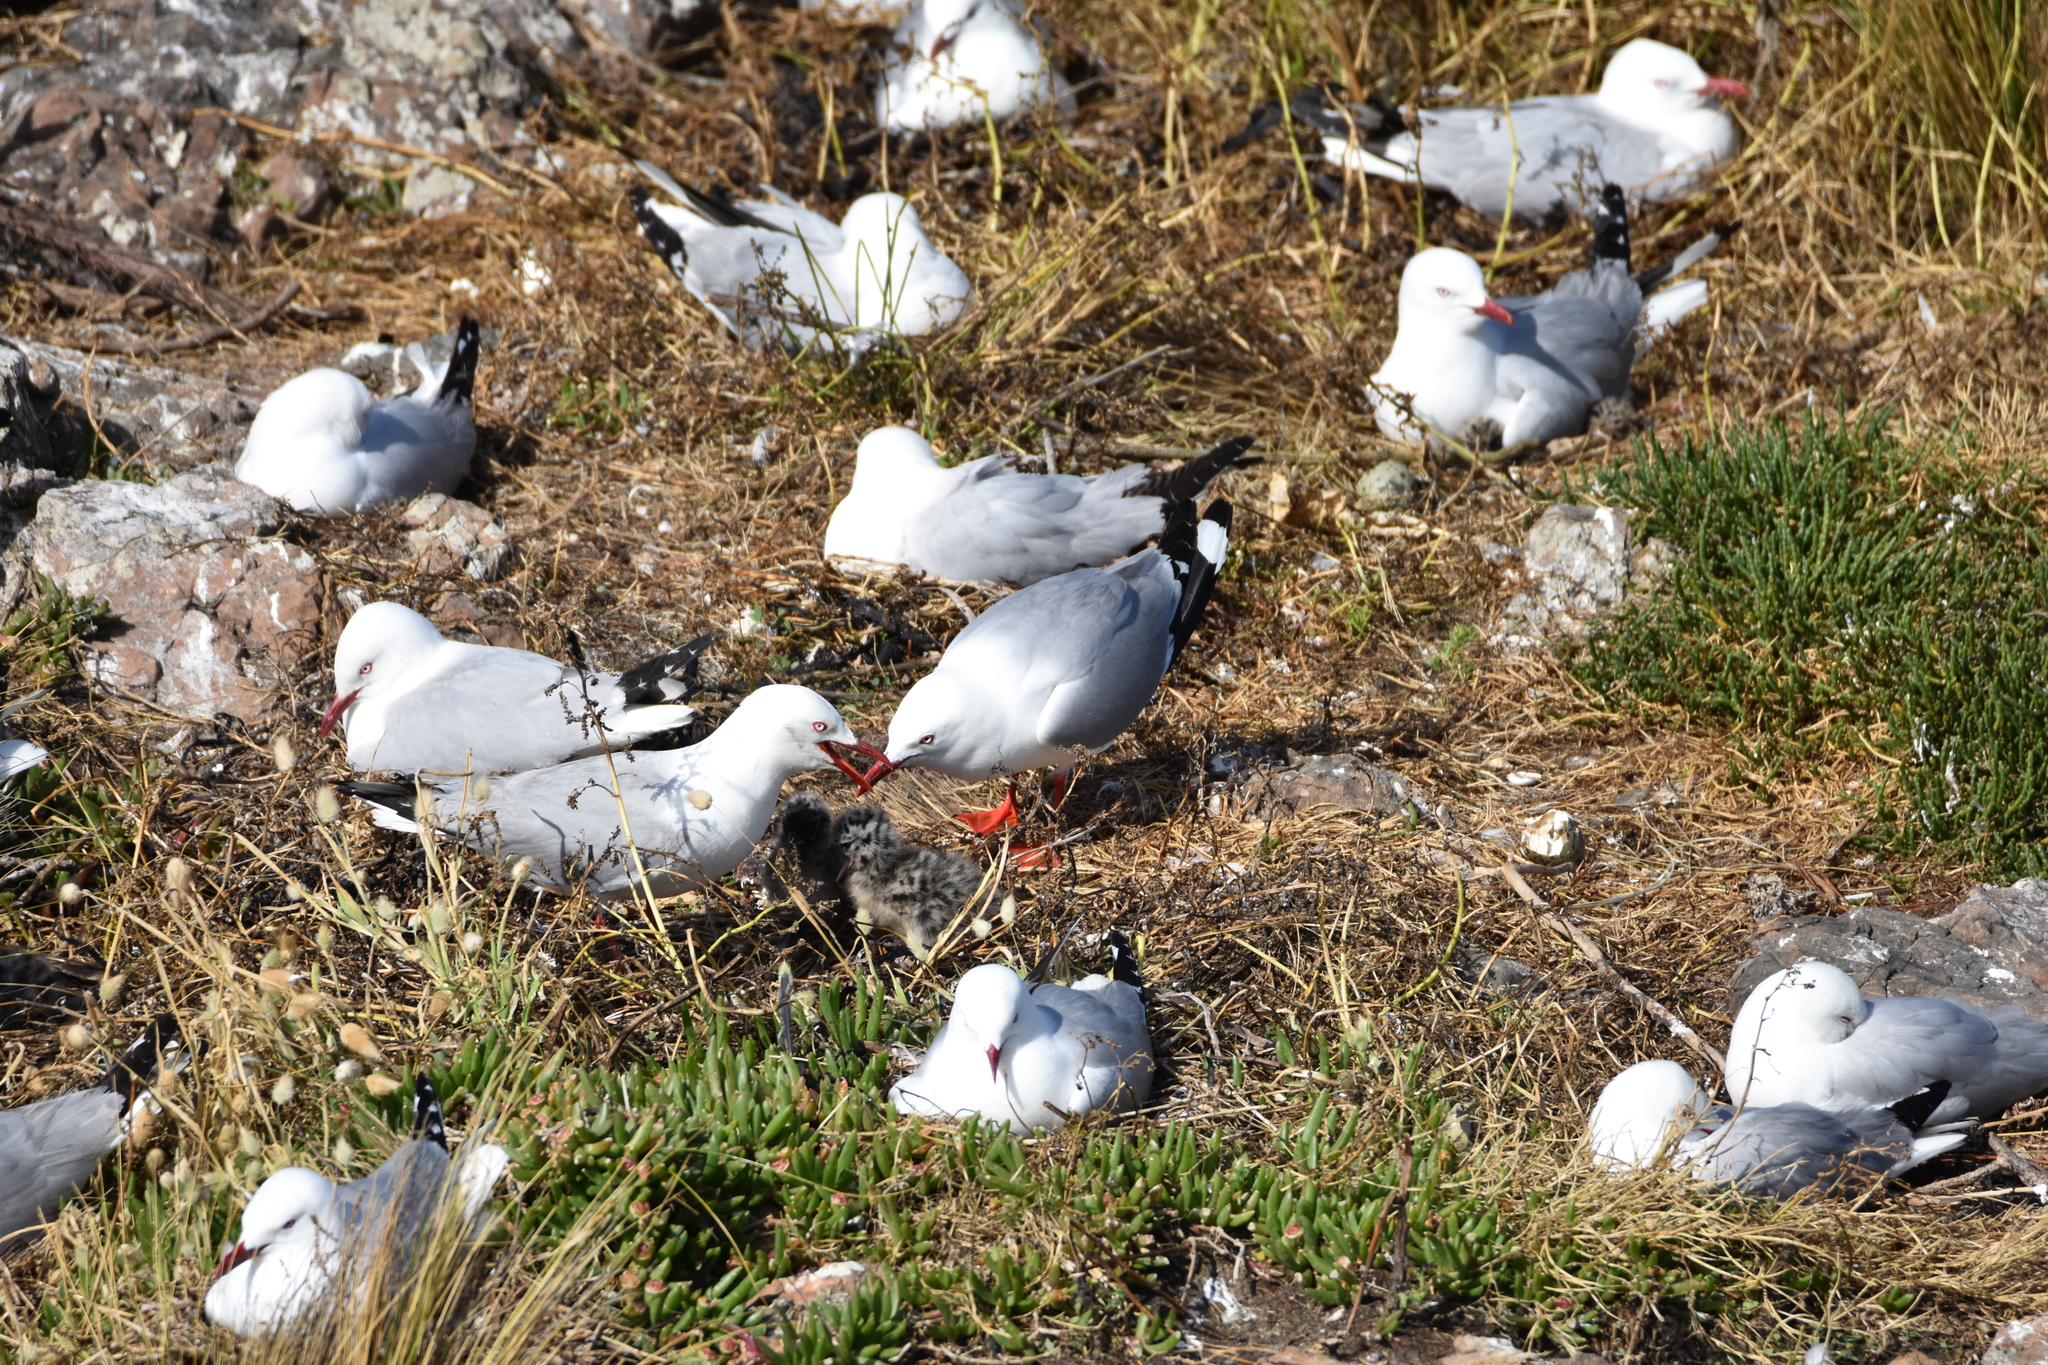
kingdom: Animalia
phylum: Chordata
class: Aves
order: Charadriiformes
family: Laridae
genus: Chroicocephalus
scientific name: Chroicocephalus novaehollandiae
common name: Silver gull
